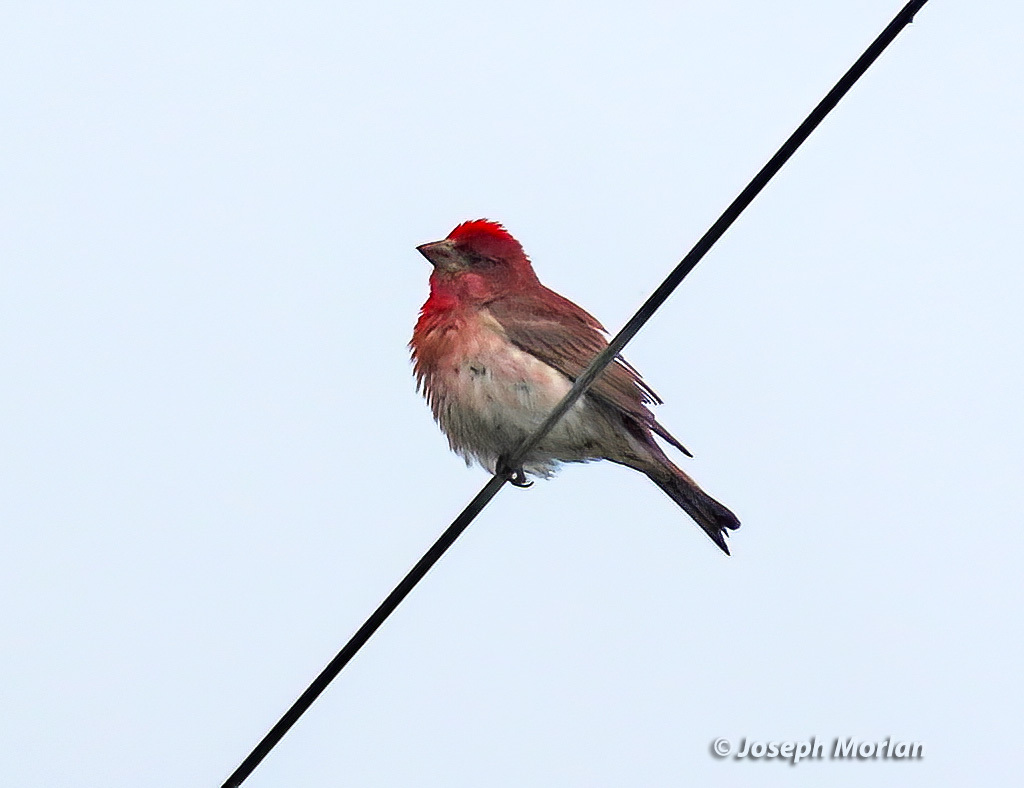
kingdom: Animalia
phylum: Chordata
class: Aves
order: Passeriformes
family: Fringillidae
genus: Haemorhous
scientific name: Haemorhous purpureus
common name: Purple finch
